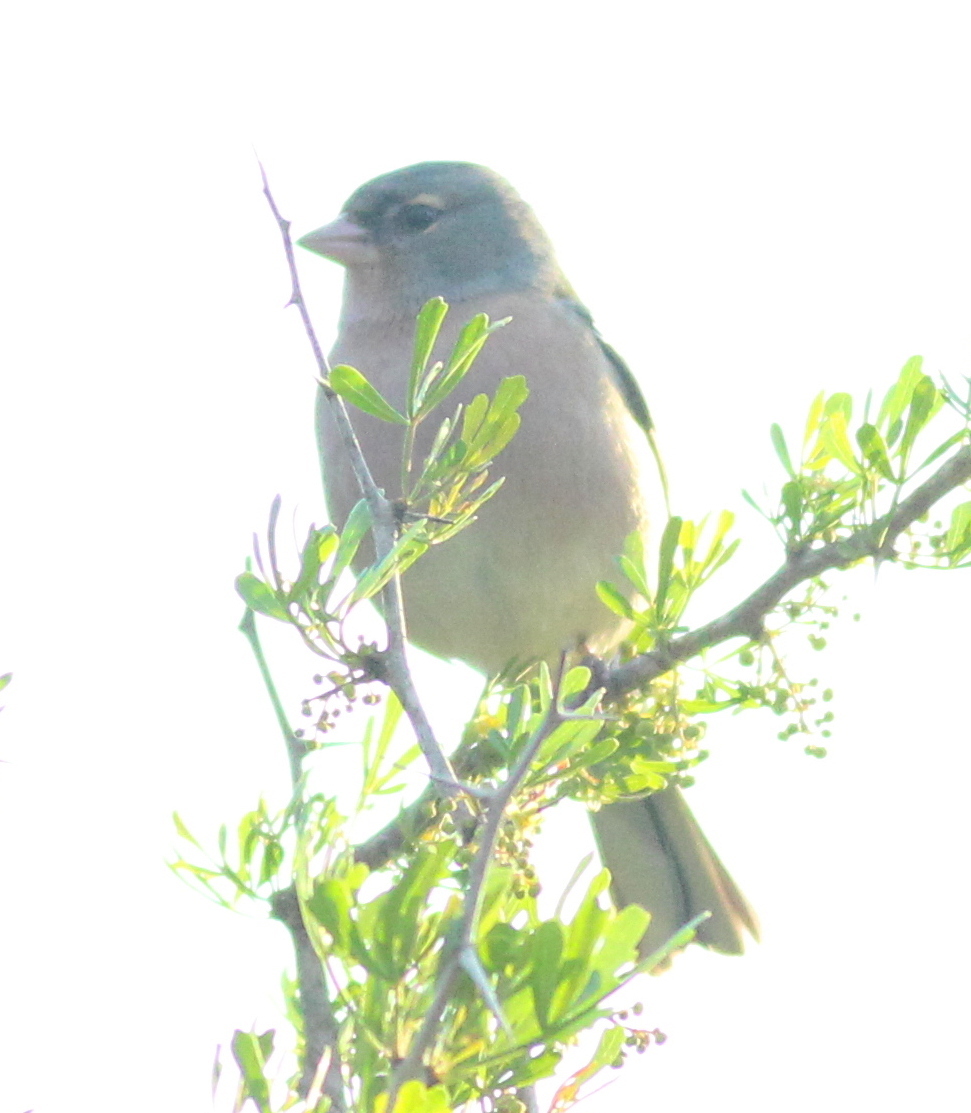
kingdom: Animalia
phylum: Chordata
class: Aves
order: Passeriformes
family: Fringillidae
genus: Fringilla
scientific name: Fringilla spodiogenys
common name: African chaffinch
